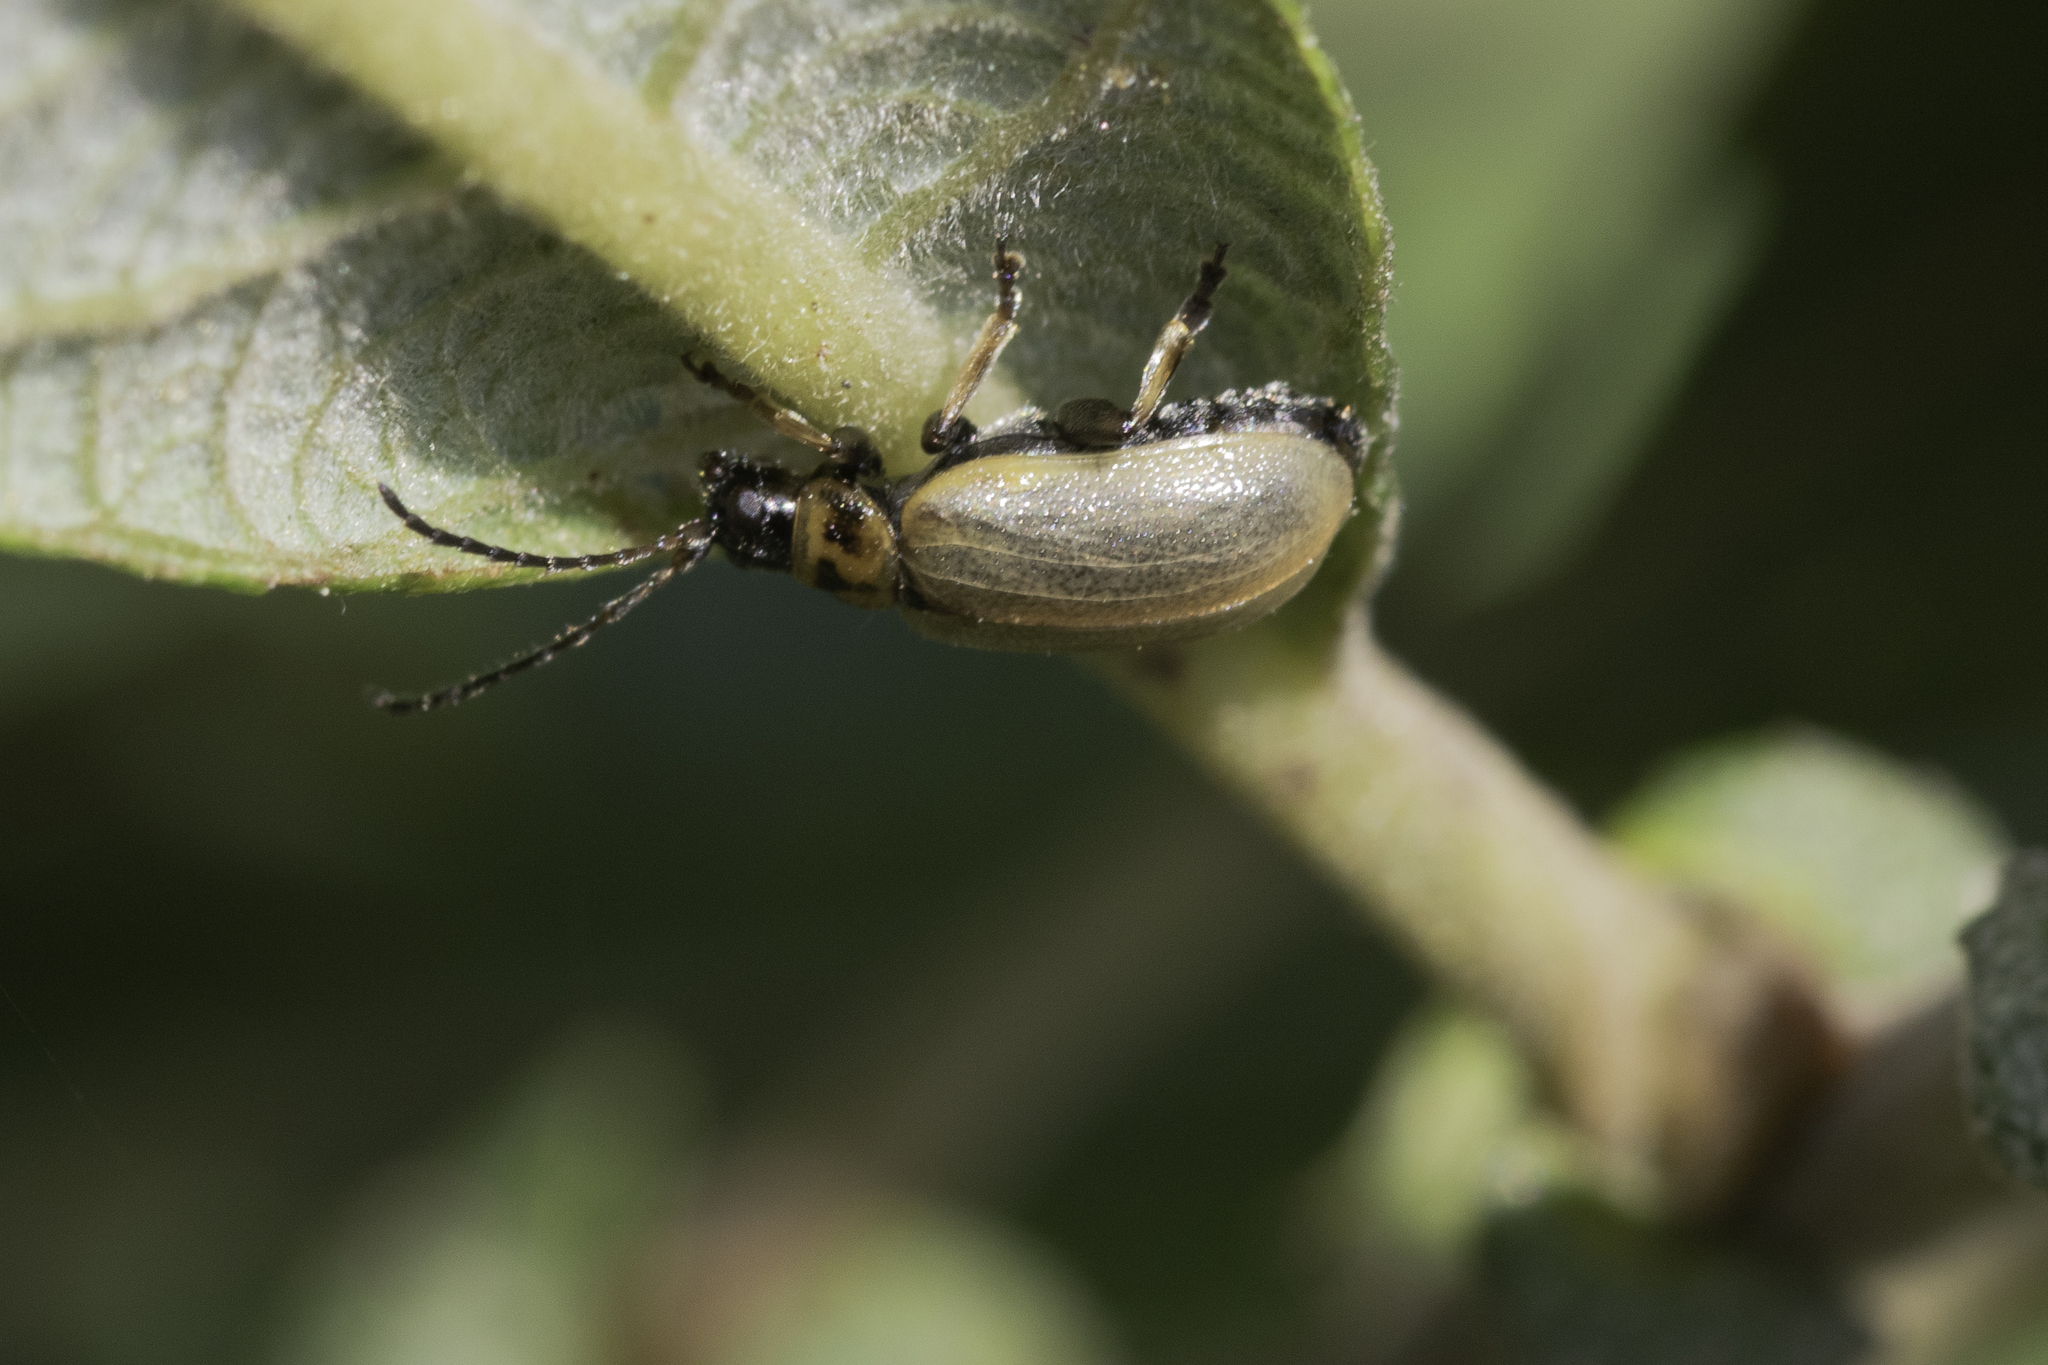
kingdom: Animalia
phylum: Arthropoda
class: Insecta
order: Coleoptera
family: Chrysomelidae
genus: Lochmaea
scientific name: Lochmaea caprea
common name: Willow leaf beetle
